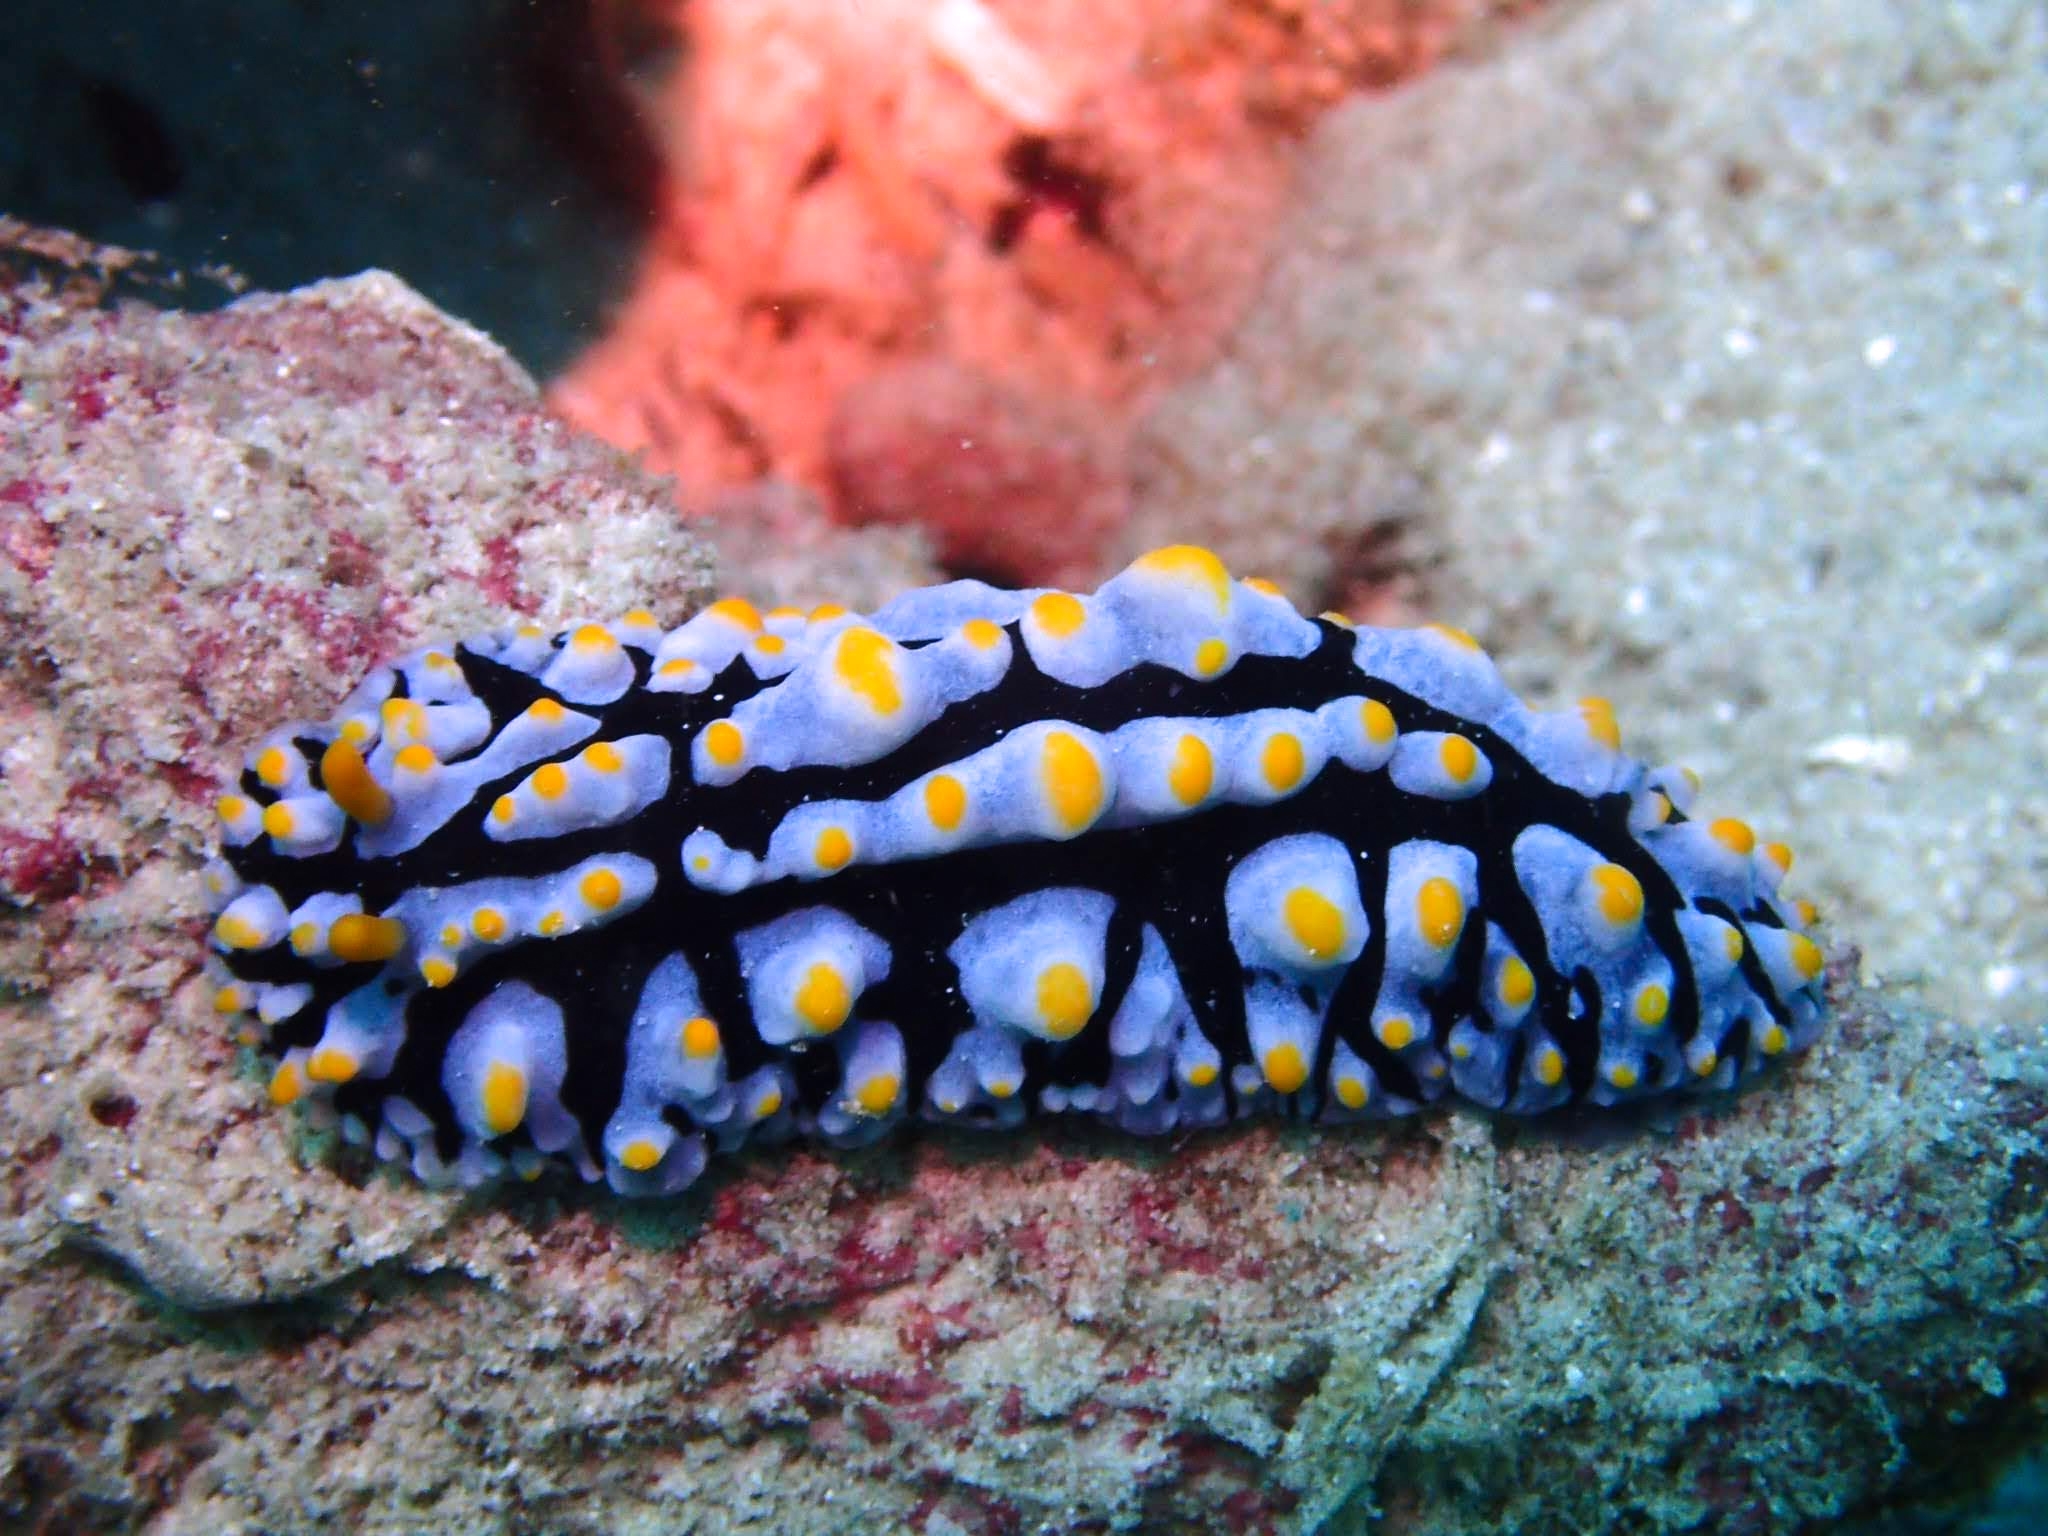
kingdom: Animalia
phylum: Mollusca
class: Gastropoda
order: Nudibranchia
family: Phyllidiidae
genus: Phyllidia
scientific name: Phyllidia varicosa
